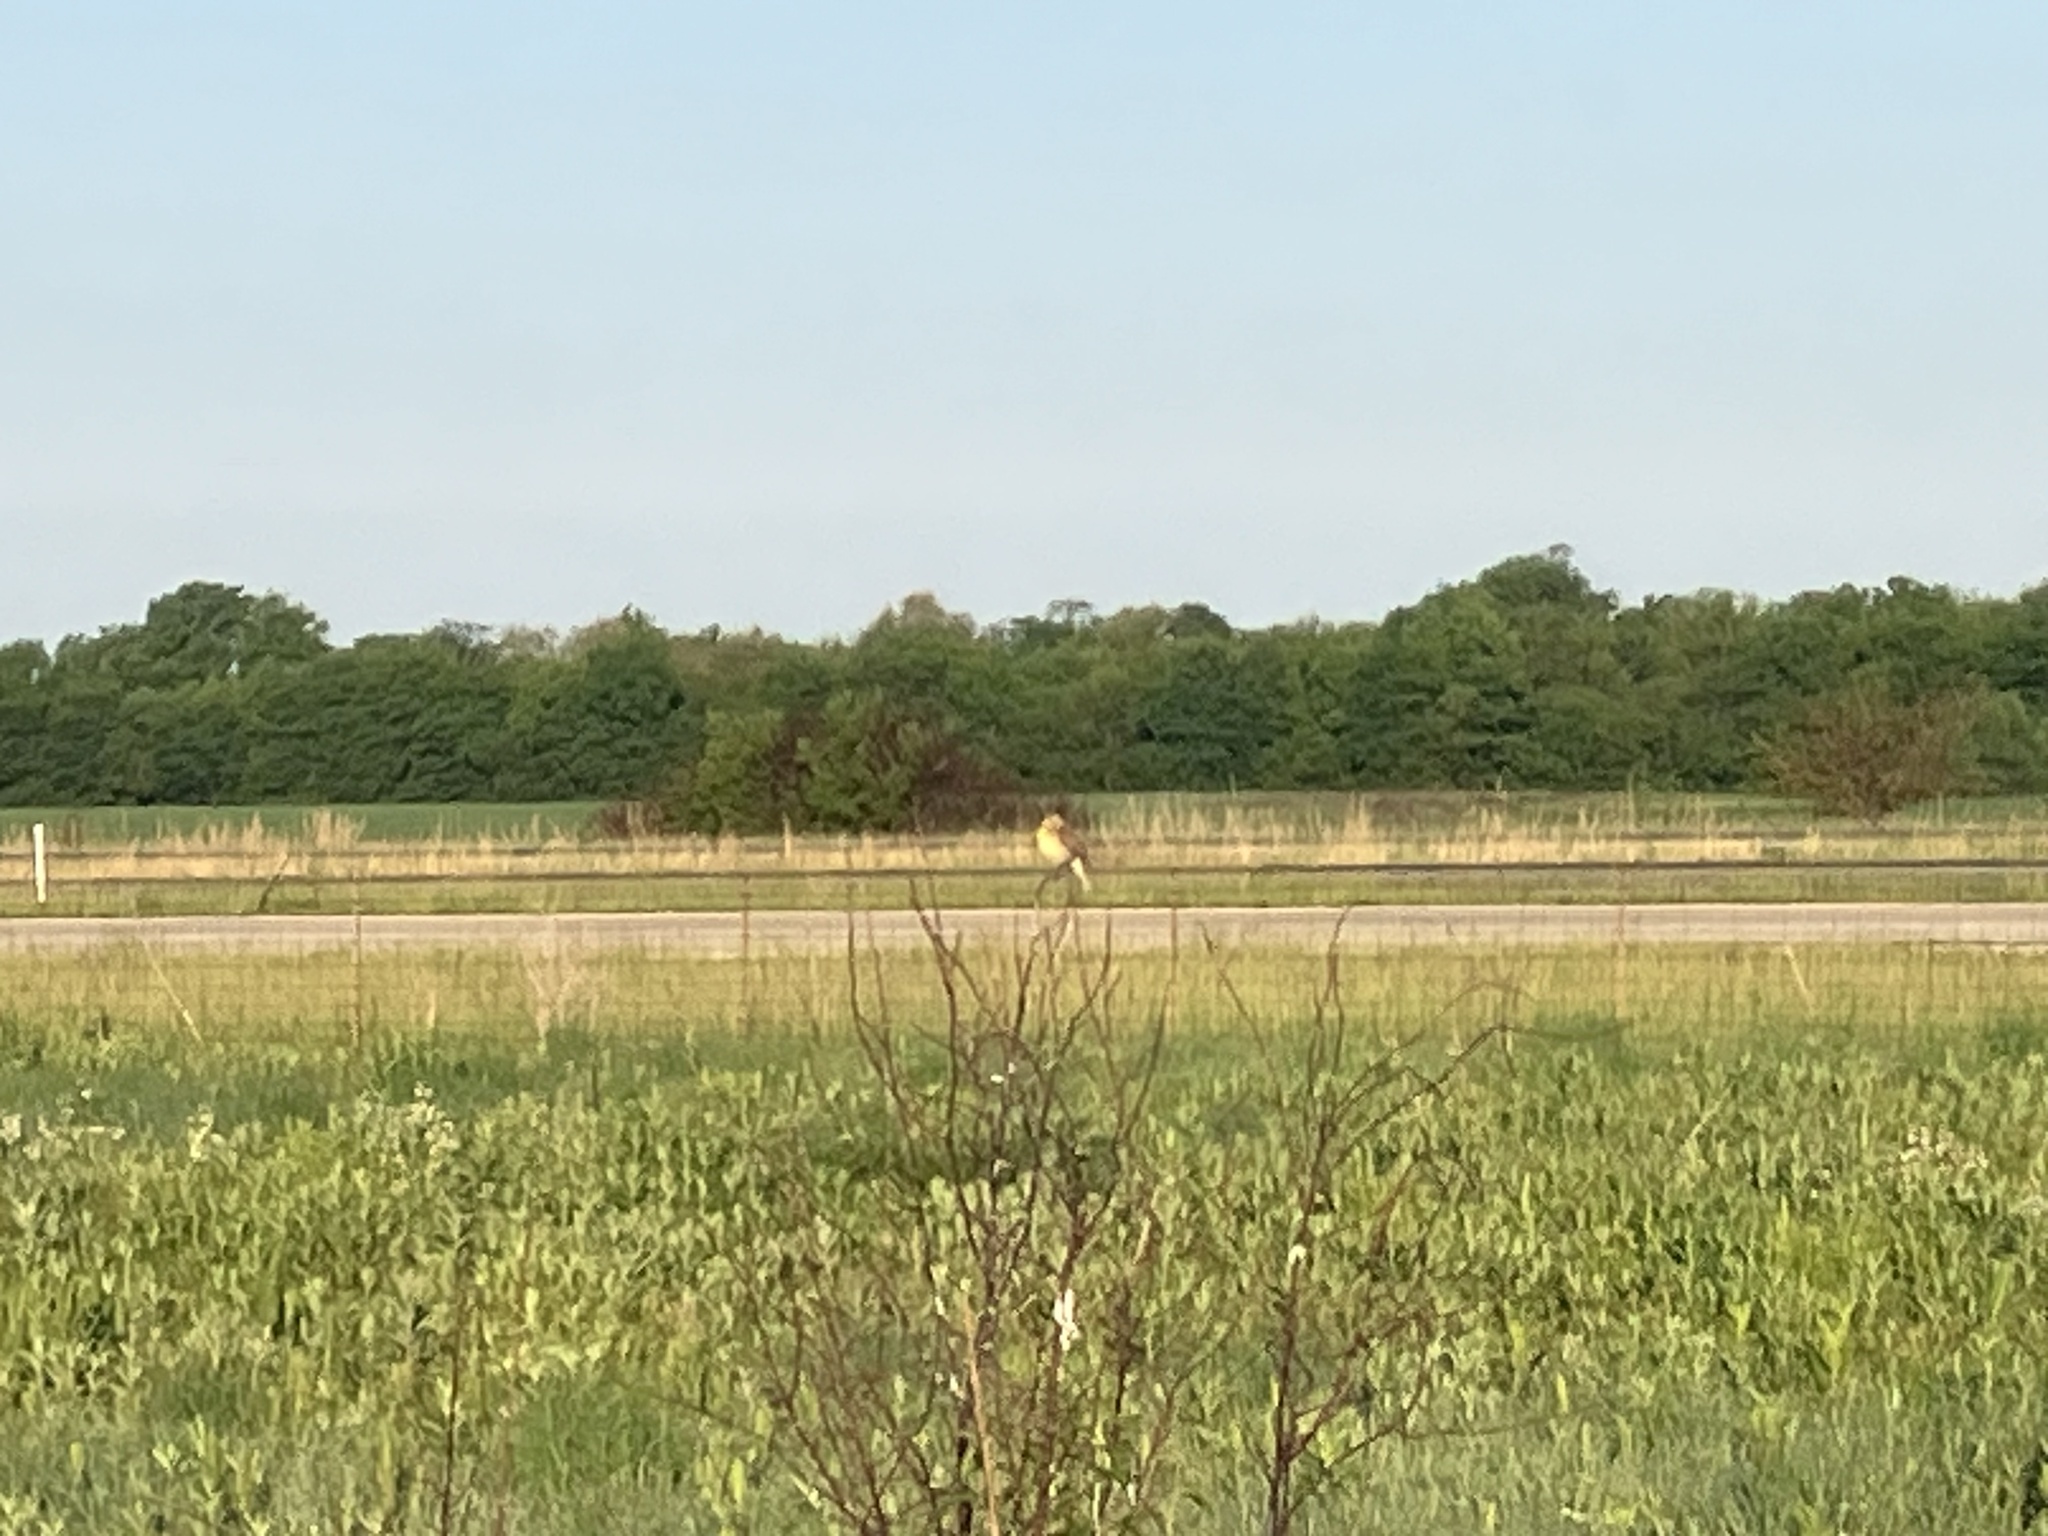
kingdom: Animalia
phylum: Chordata
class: Aves
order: Passeriformes
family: Cardinalidae
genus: Spiza
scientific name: Spiza americana
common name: Dickcissel
